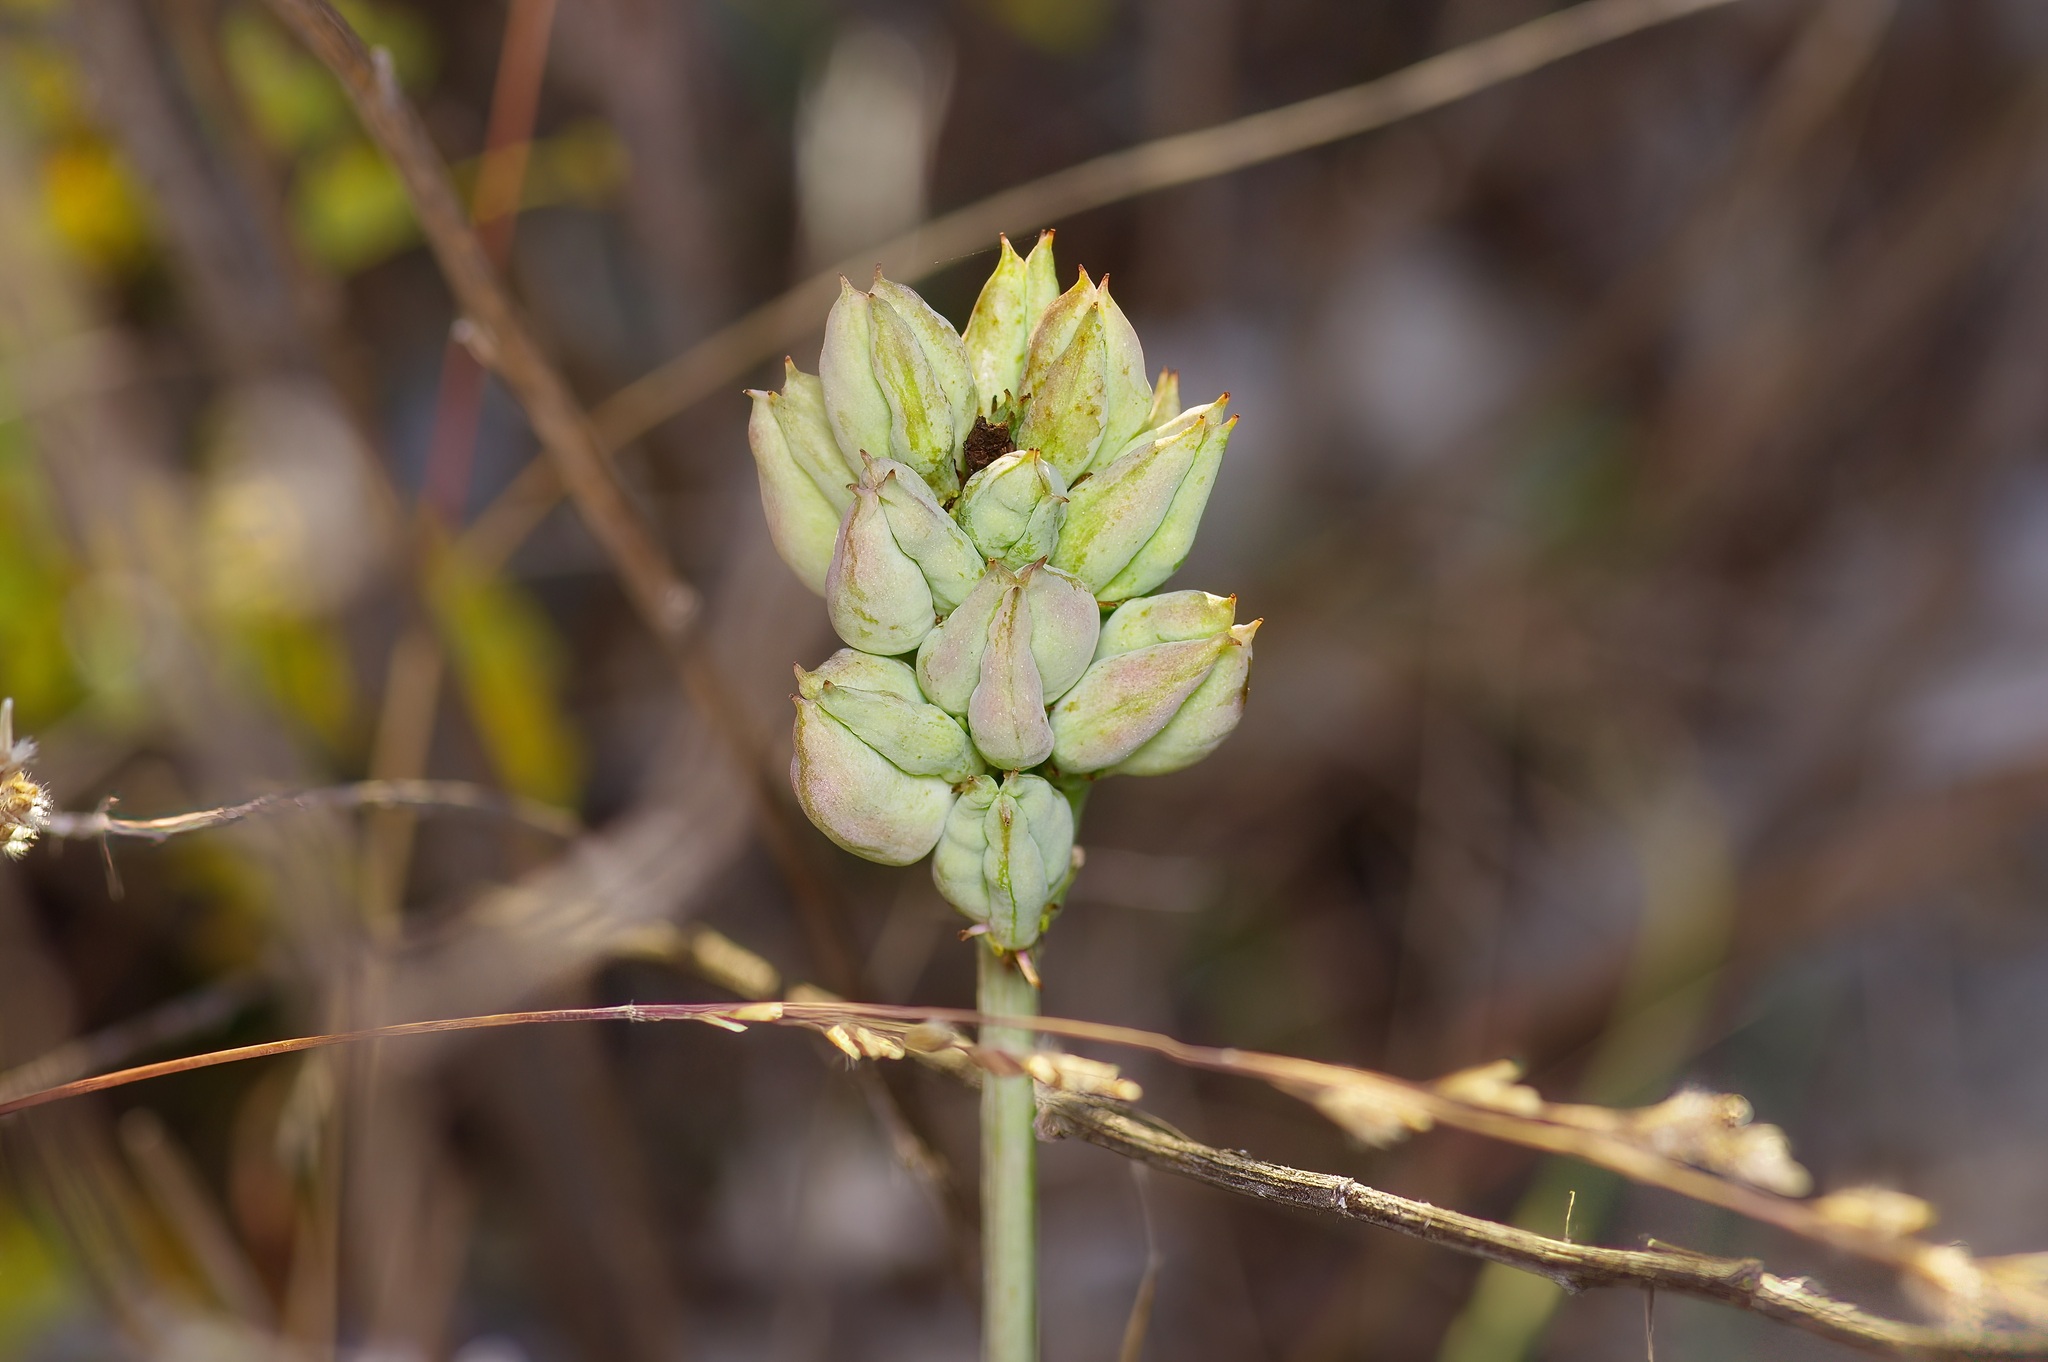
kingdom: Plantae
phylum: Tracheophyta
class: Liliopsida
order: Liliales
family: Melanthiaceae
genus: Schoenocaulon
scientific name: Schoenocaulon texanum
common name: Texas feather-shank
